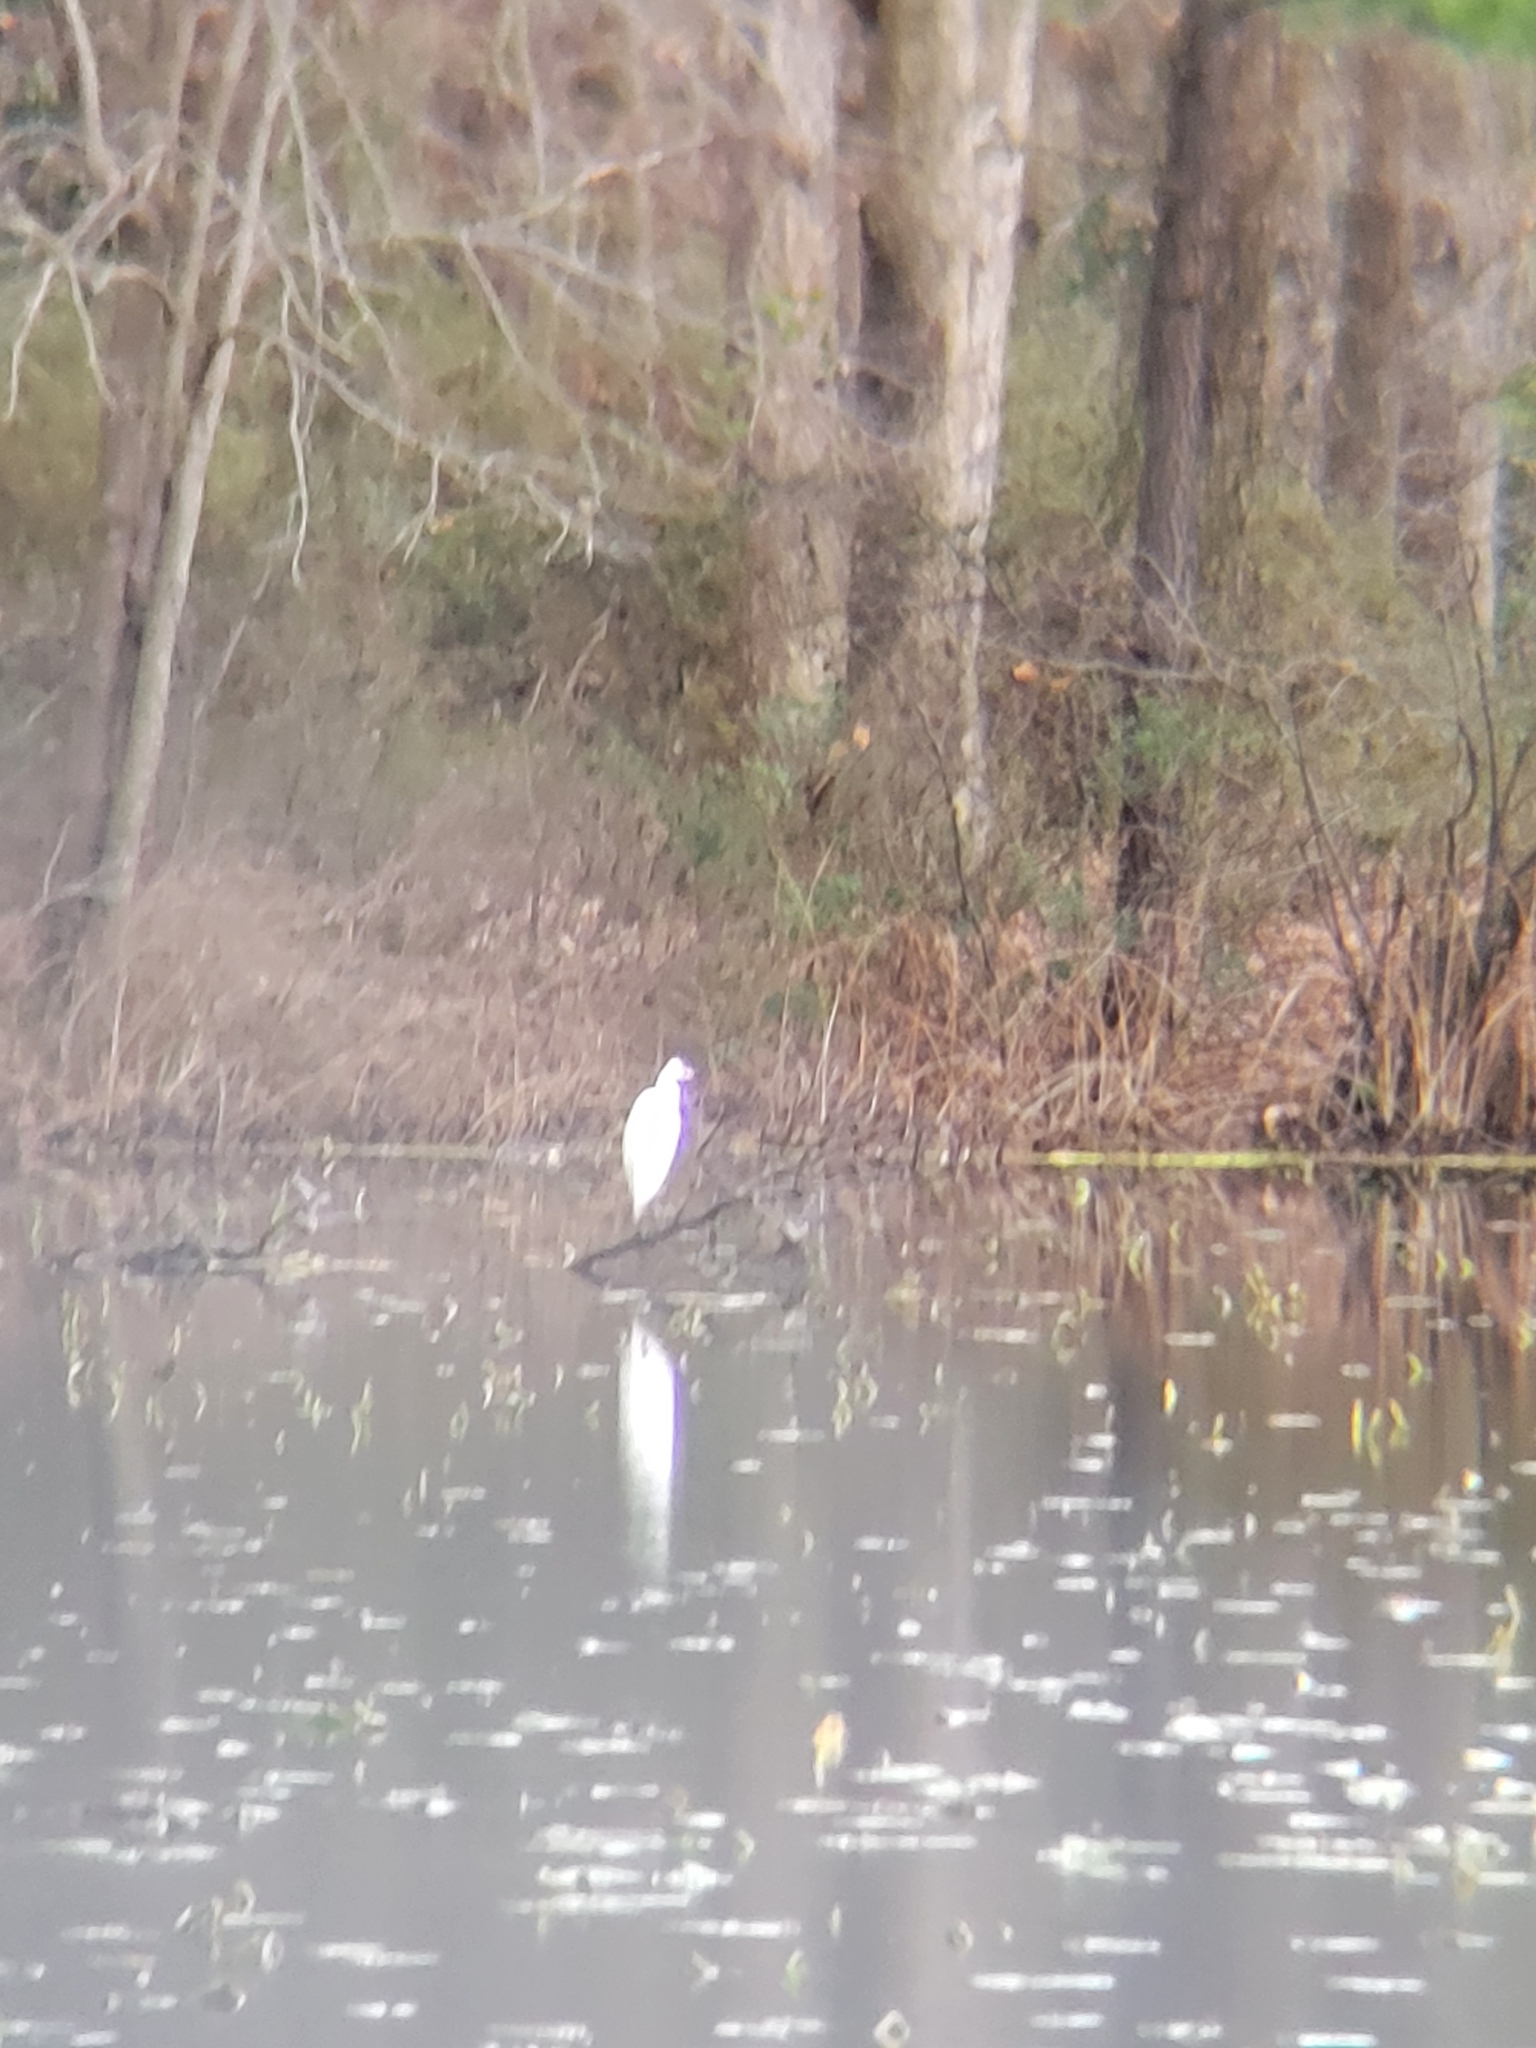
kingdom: Animalia
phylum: Chordata
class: Aves
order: Pelecaniformes
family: Ardeidae
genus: Ardea
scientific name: Ardea alba
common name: Great egret
